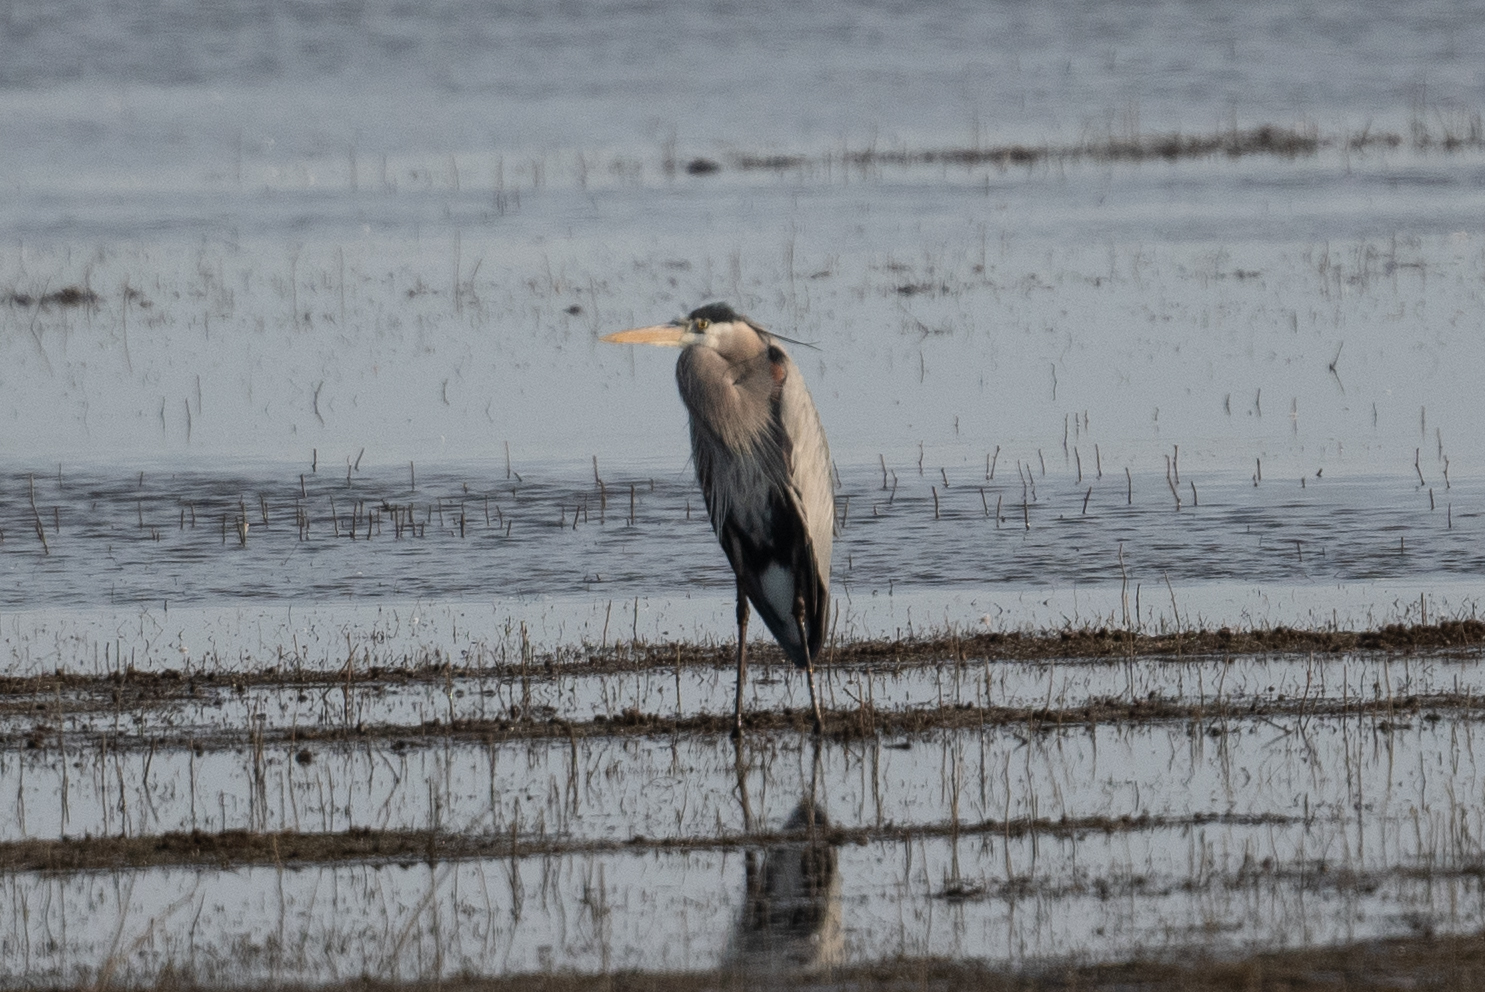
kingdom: Animalia
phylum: Chordata
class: Aves
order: Pelecaniformes
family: Ardeidae
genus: Ardea
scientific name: Ardea herodias
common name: Great blue heron
